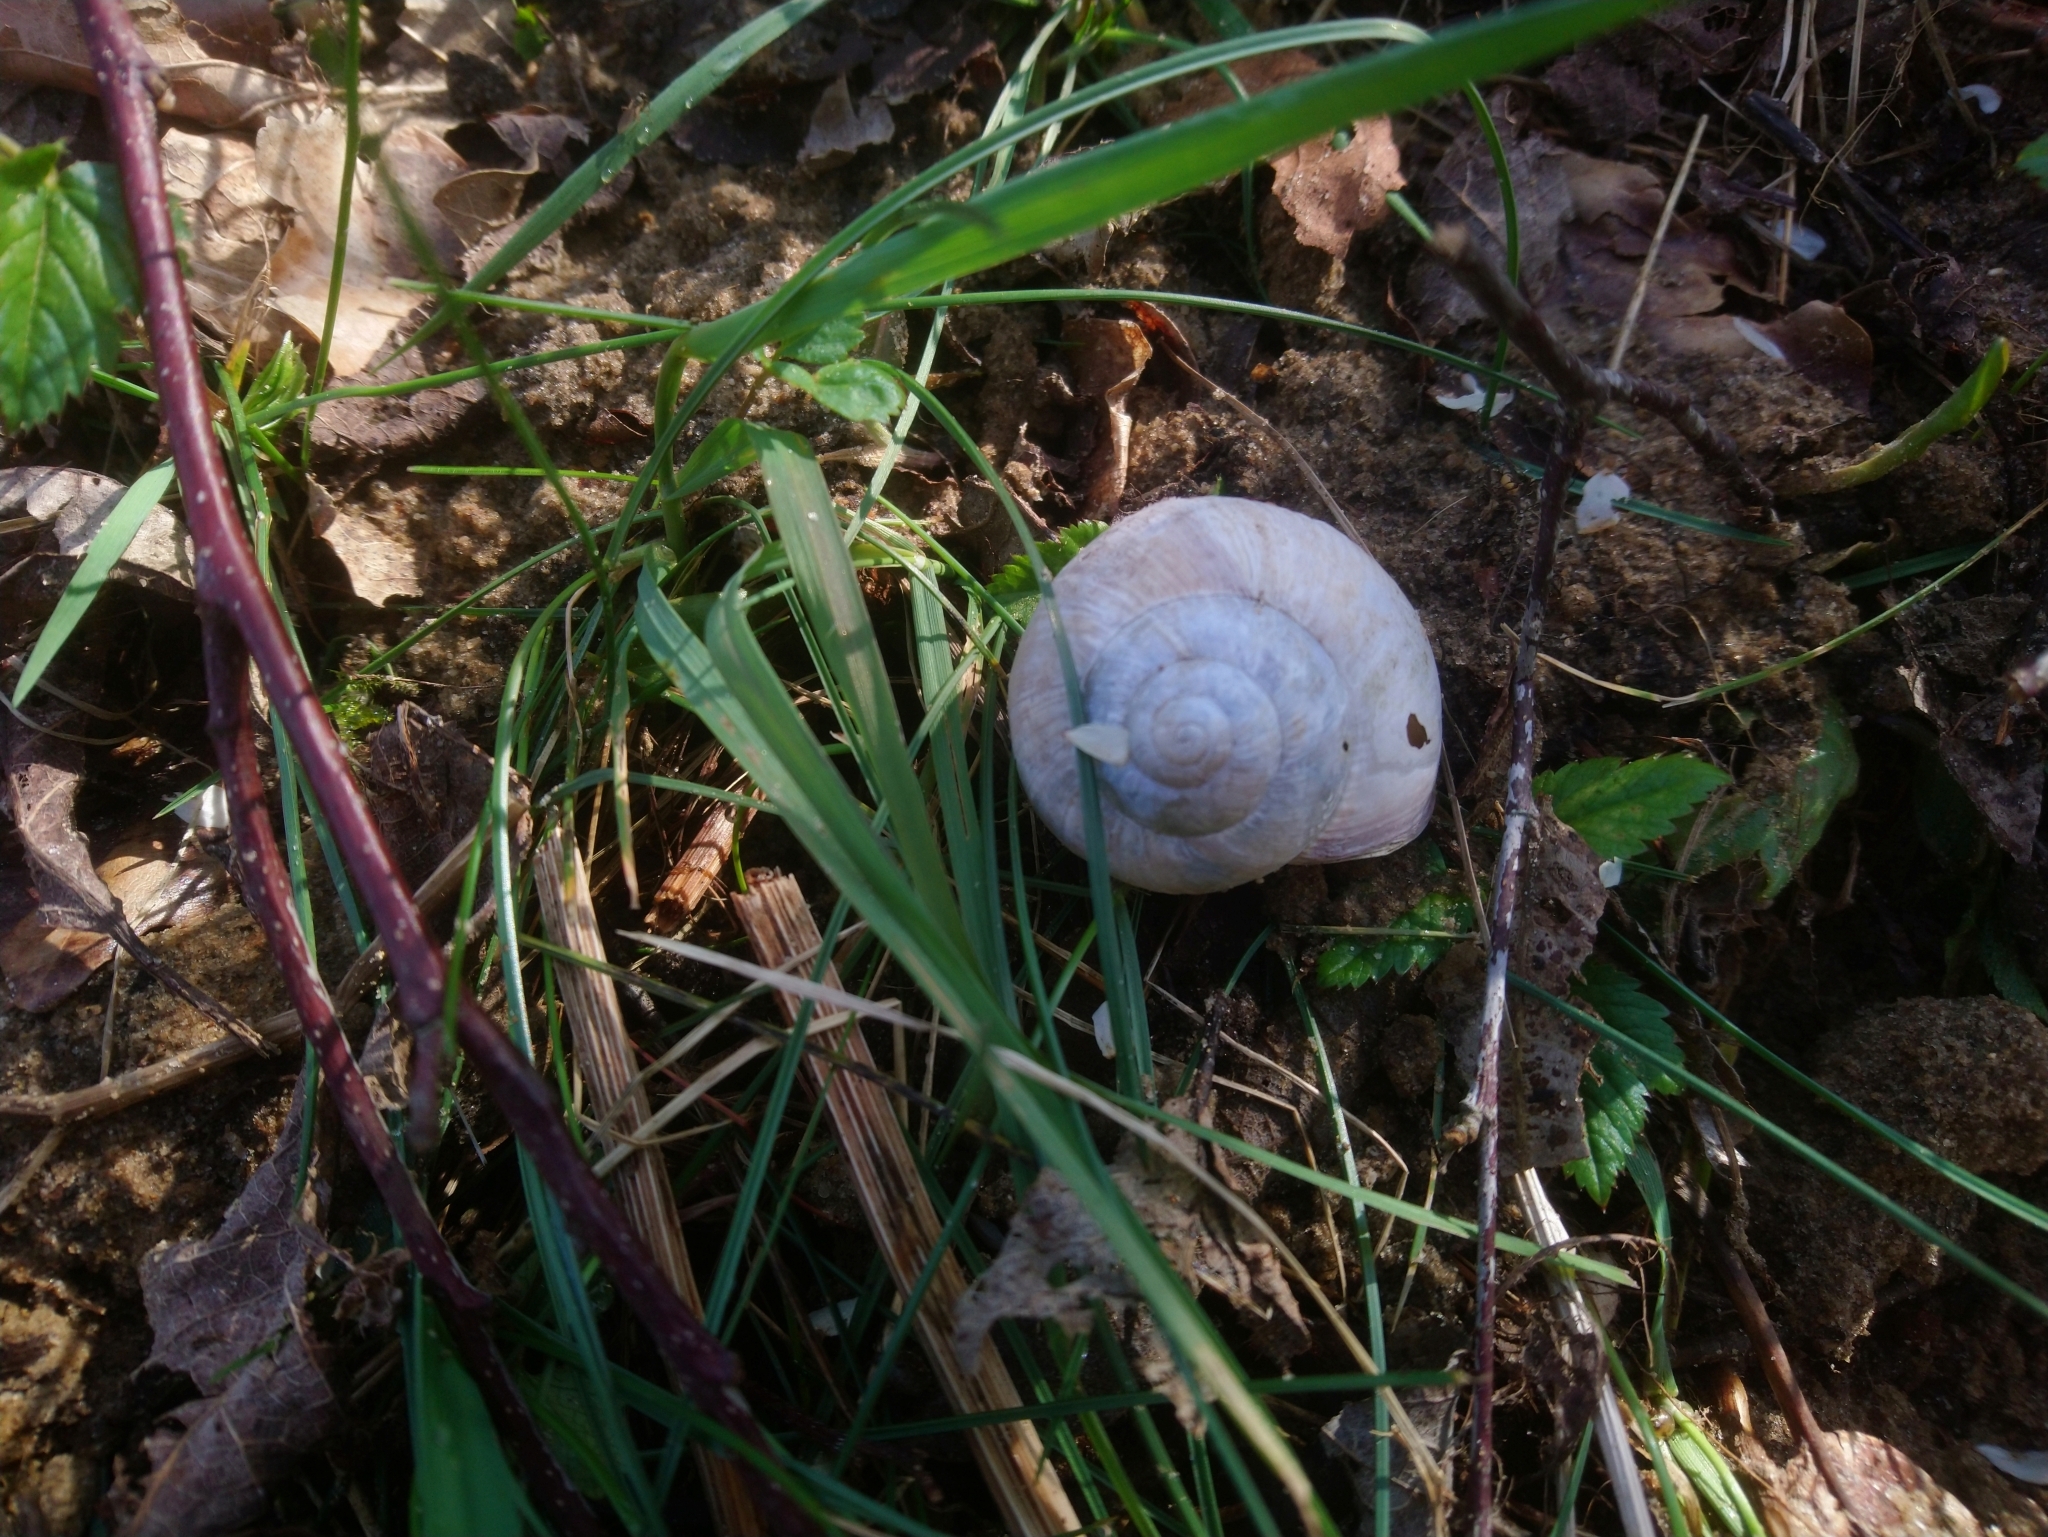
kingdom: Animalia
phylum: Mollusca
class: Gastropoda
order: Stylommatophora
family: Helicidae
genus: Helix
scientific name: Helix pomatia
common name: Roman snail
